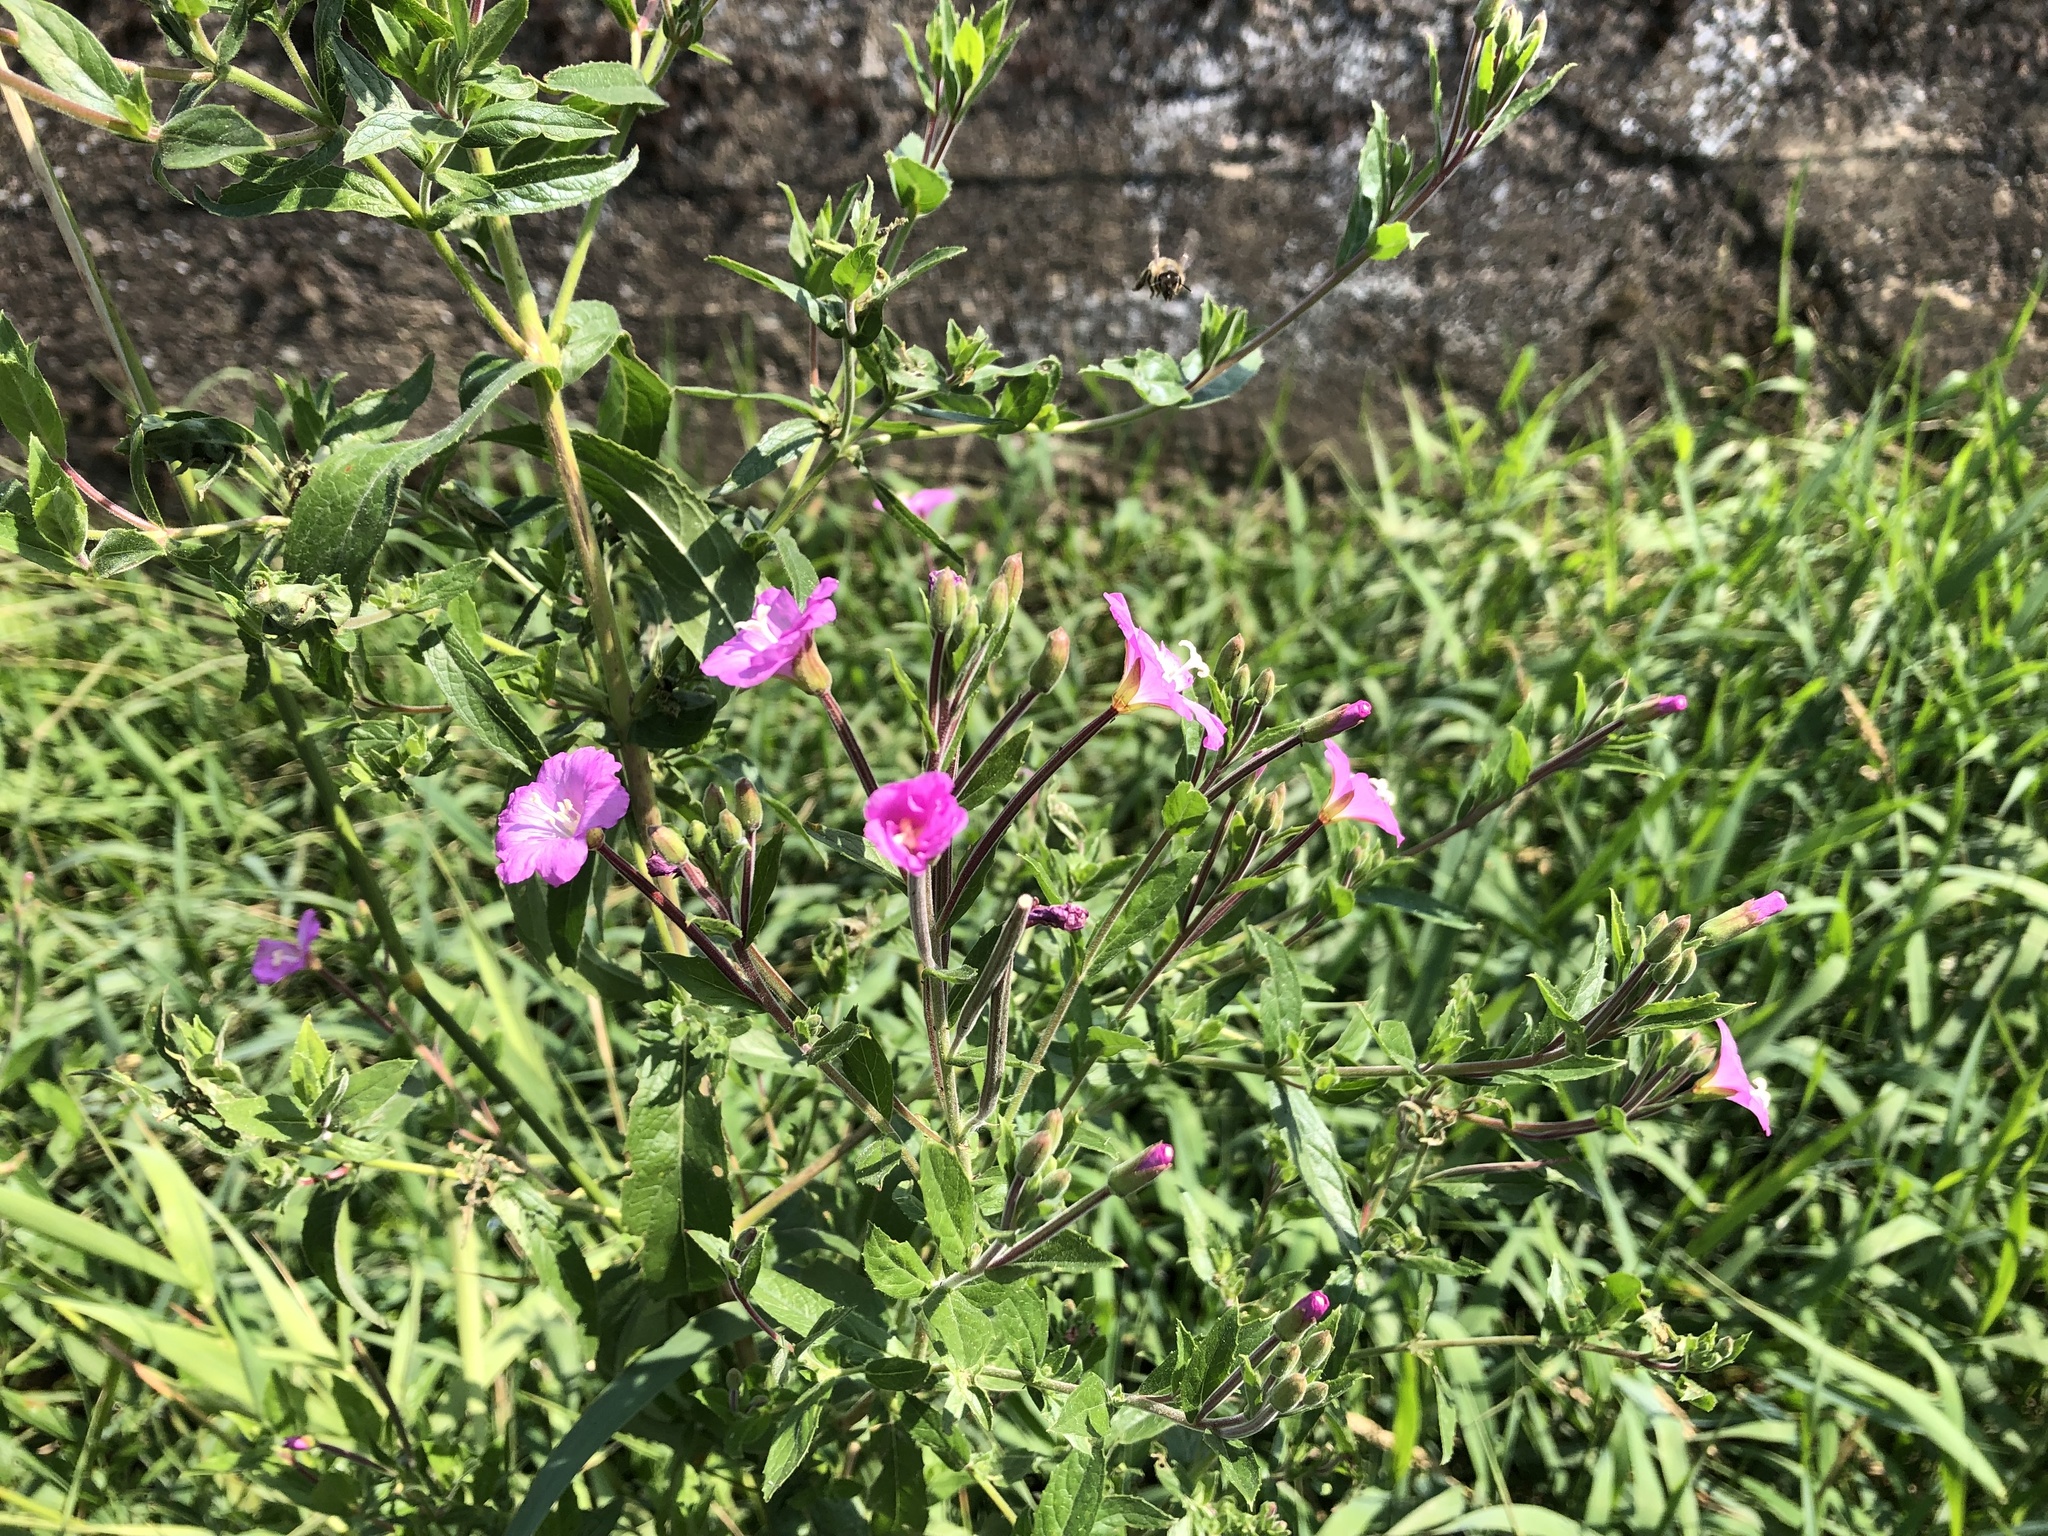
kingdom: Plantae
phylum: Tracheophyta
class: Magnoliopsida
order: Myrtales
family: Onagraceae
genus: Epilobium
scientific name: Epilobium hirsutum
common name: Great willowherb
